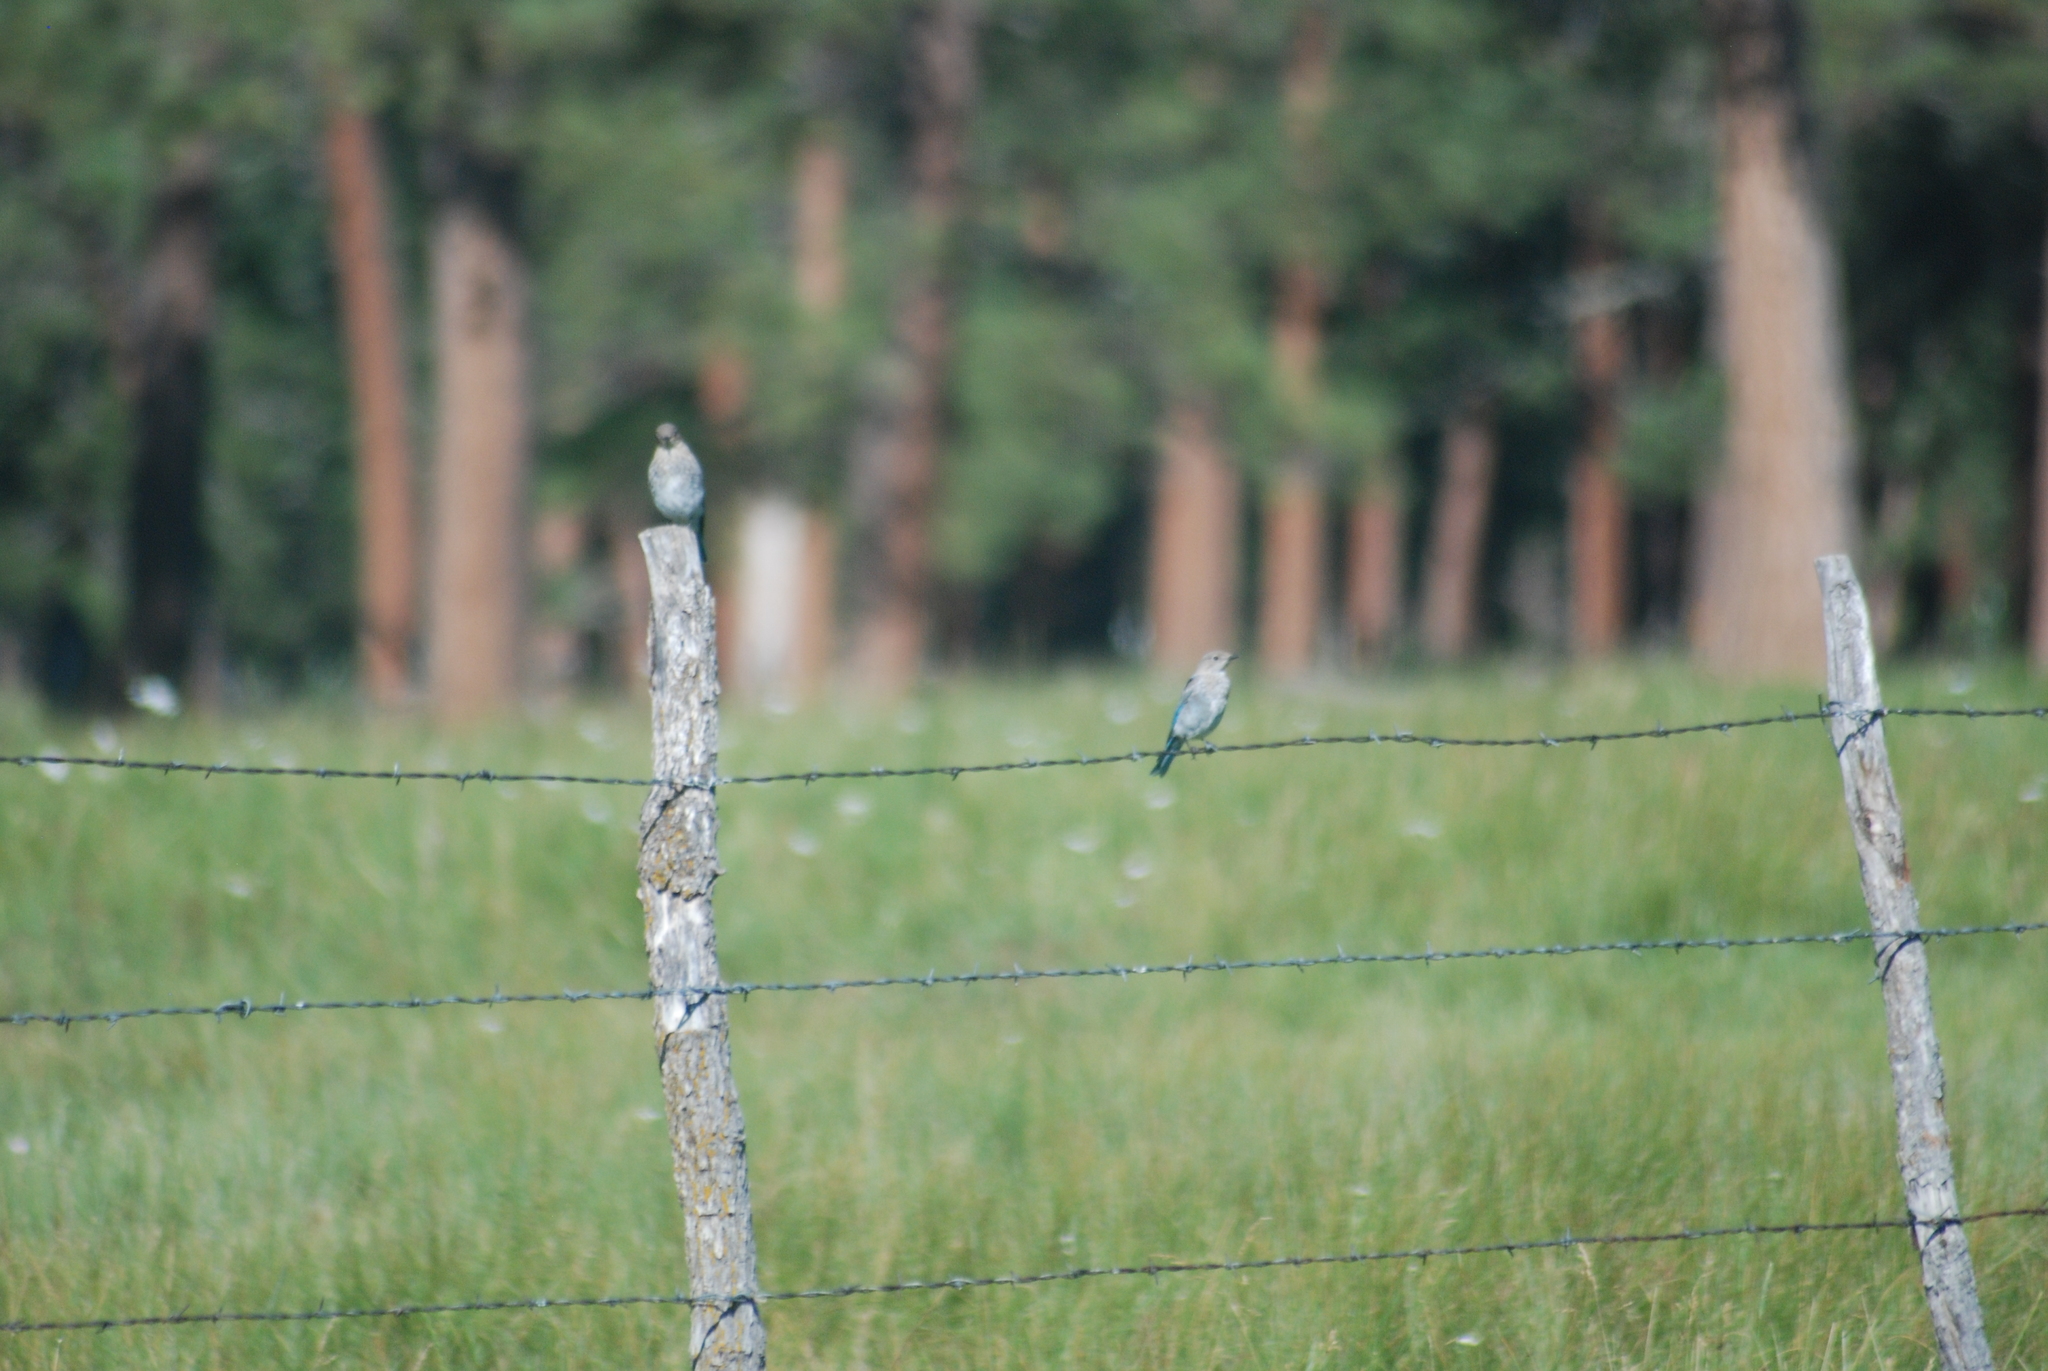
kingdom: Animalia
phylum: Chordata
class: Aves
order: Passeriformes
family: Turdidae
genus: Sialia
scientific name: Sialia currucoides
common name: Mountain bluebird
